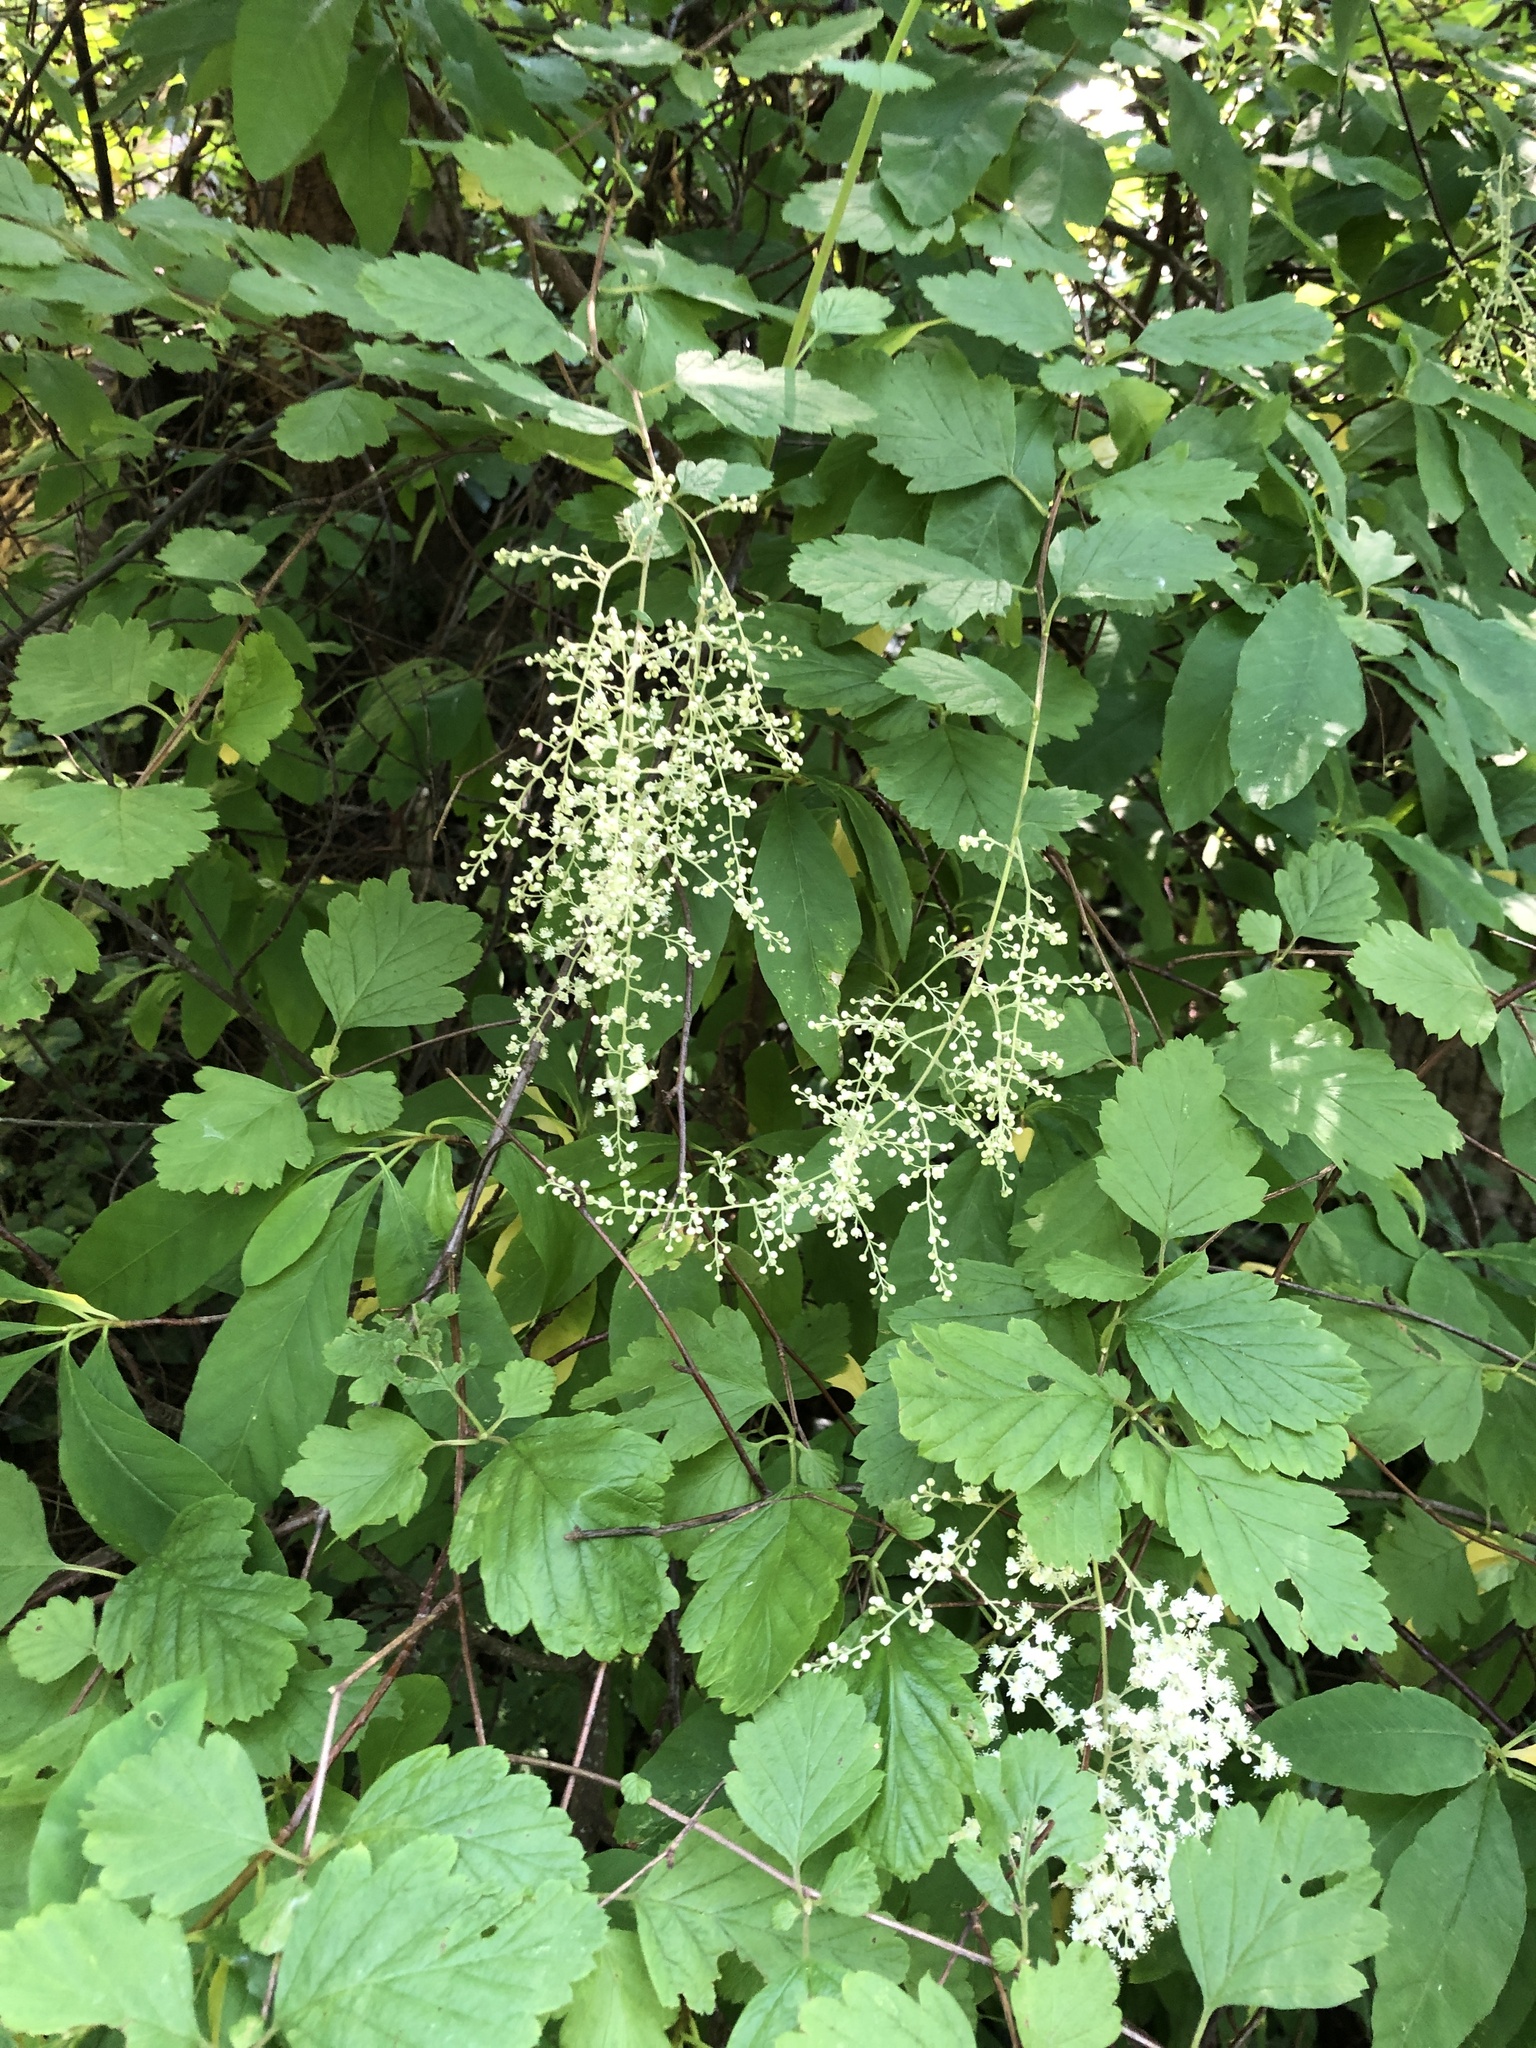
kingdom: Plantae
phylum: Tracheophyta
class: Magnoliopsida
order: Rosales
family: Rosaceae
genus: Holodiscus
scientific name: Holodiscus discolor
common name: Oceanspray
